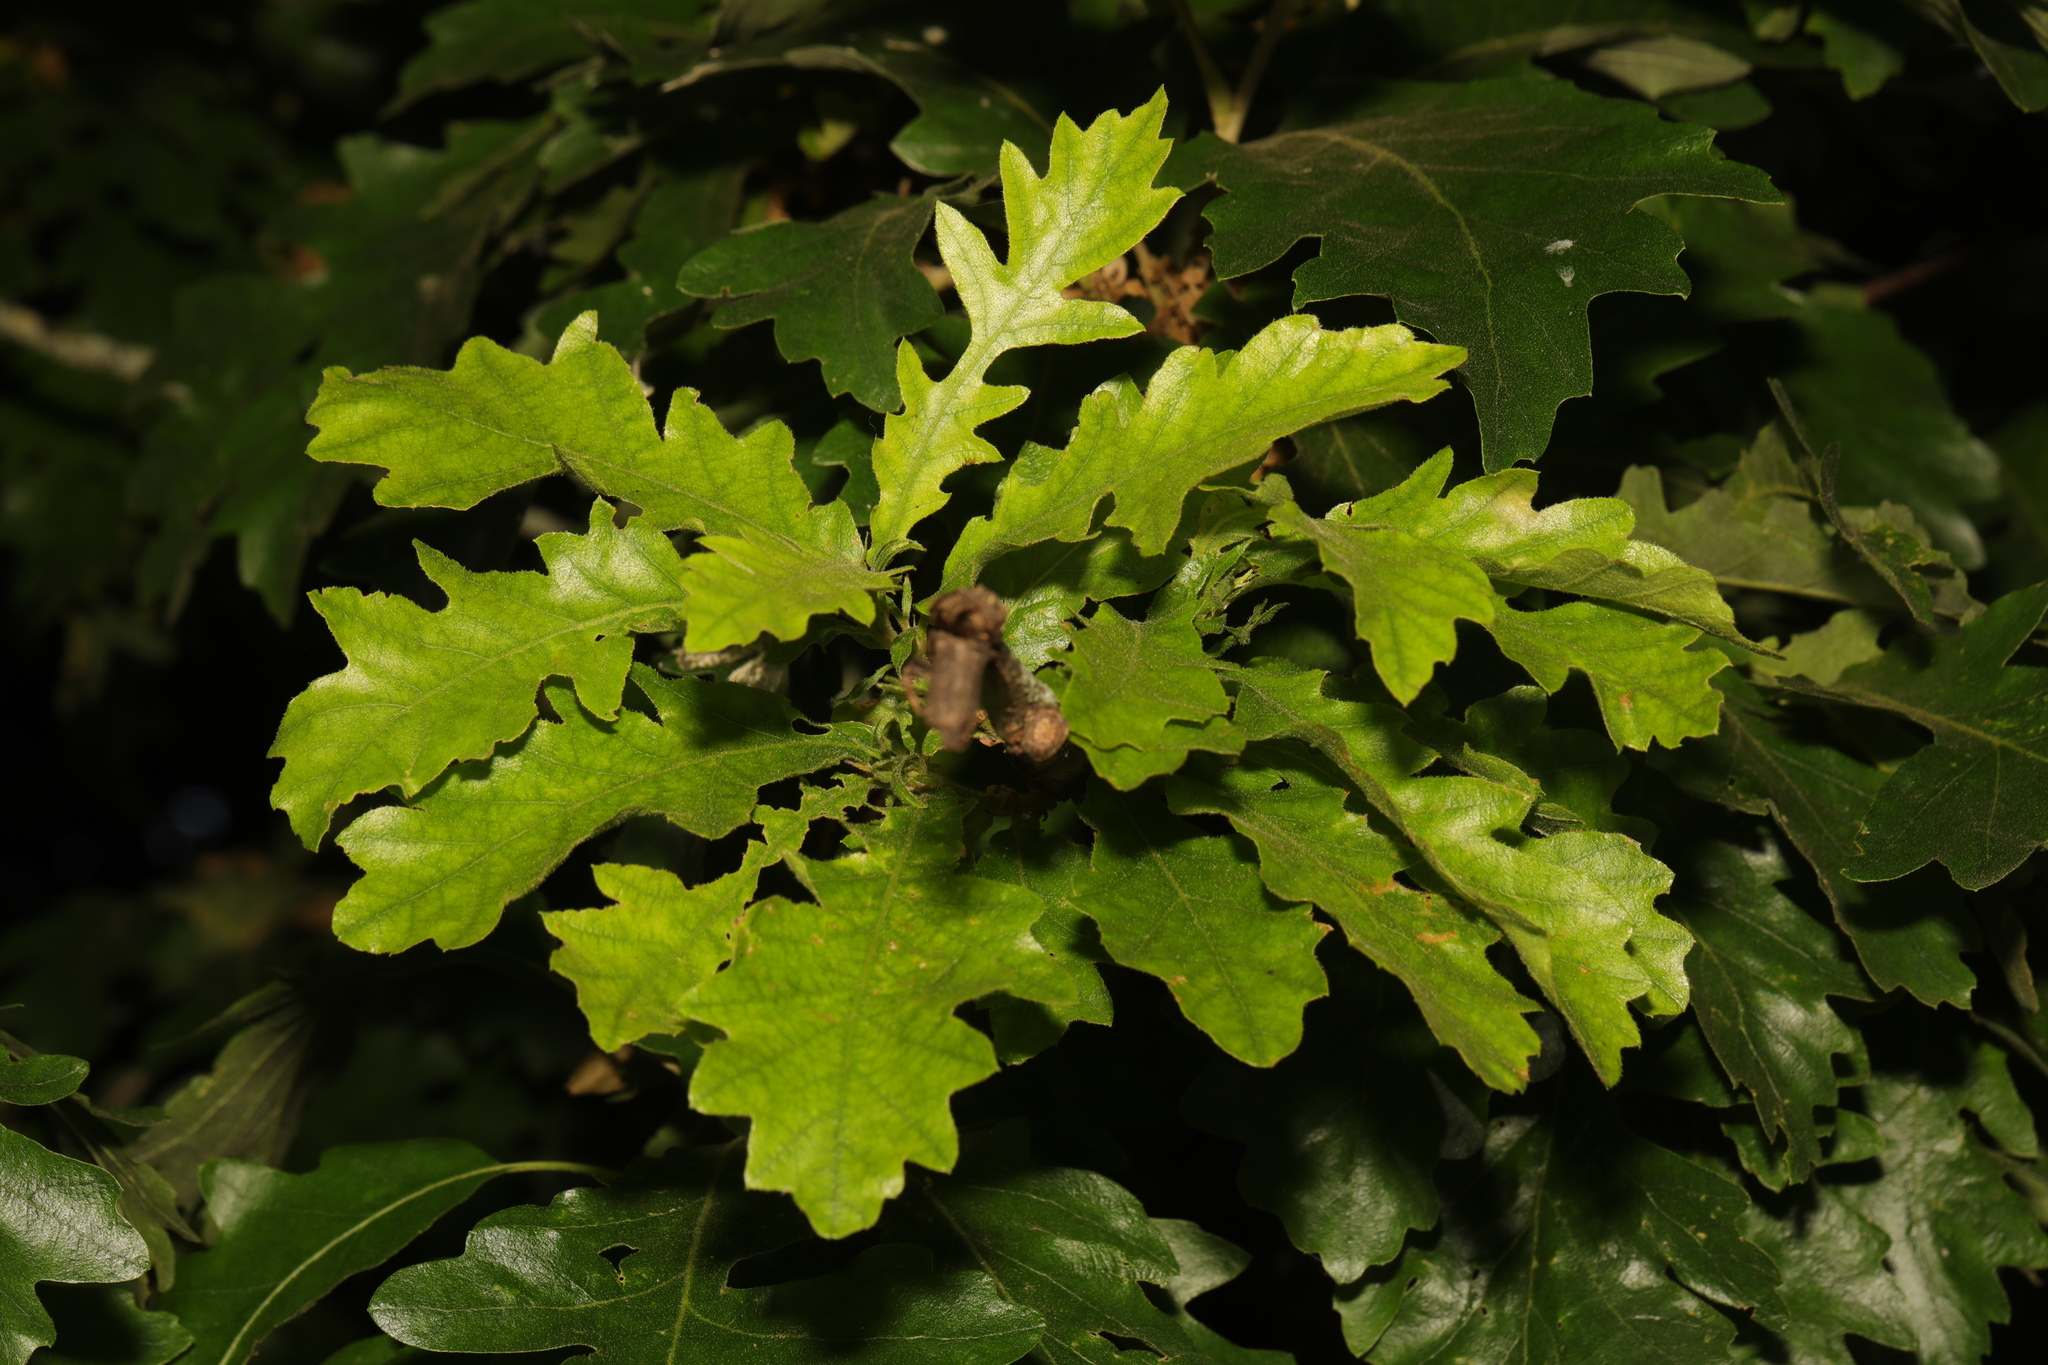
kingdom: Plantae
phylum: Tracheophyta
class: Magnoliopsida
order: Fagales
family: Fagaceae
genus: Quercus
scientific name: Quercus cerris
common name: Turkey oak
